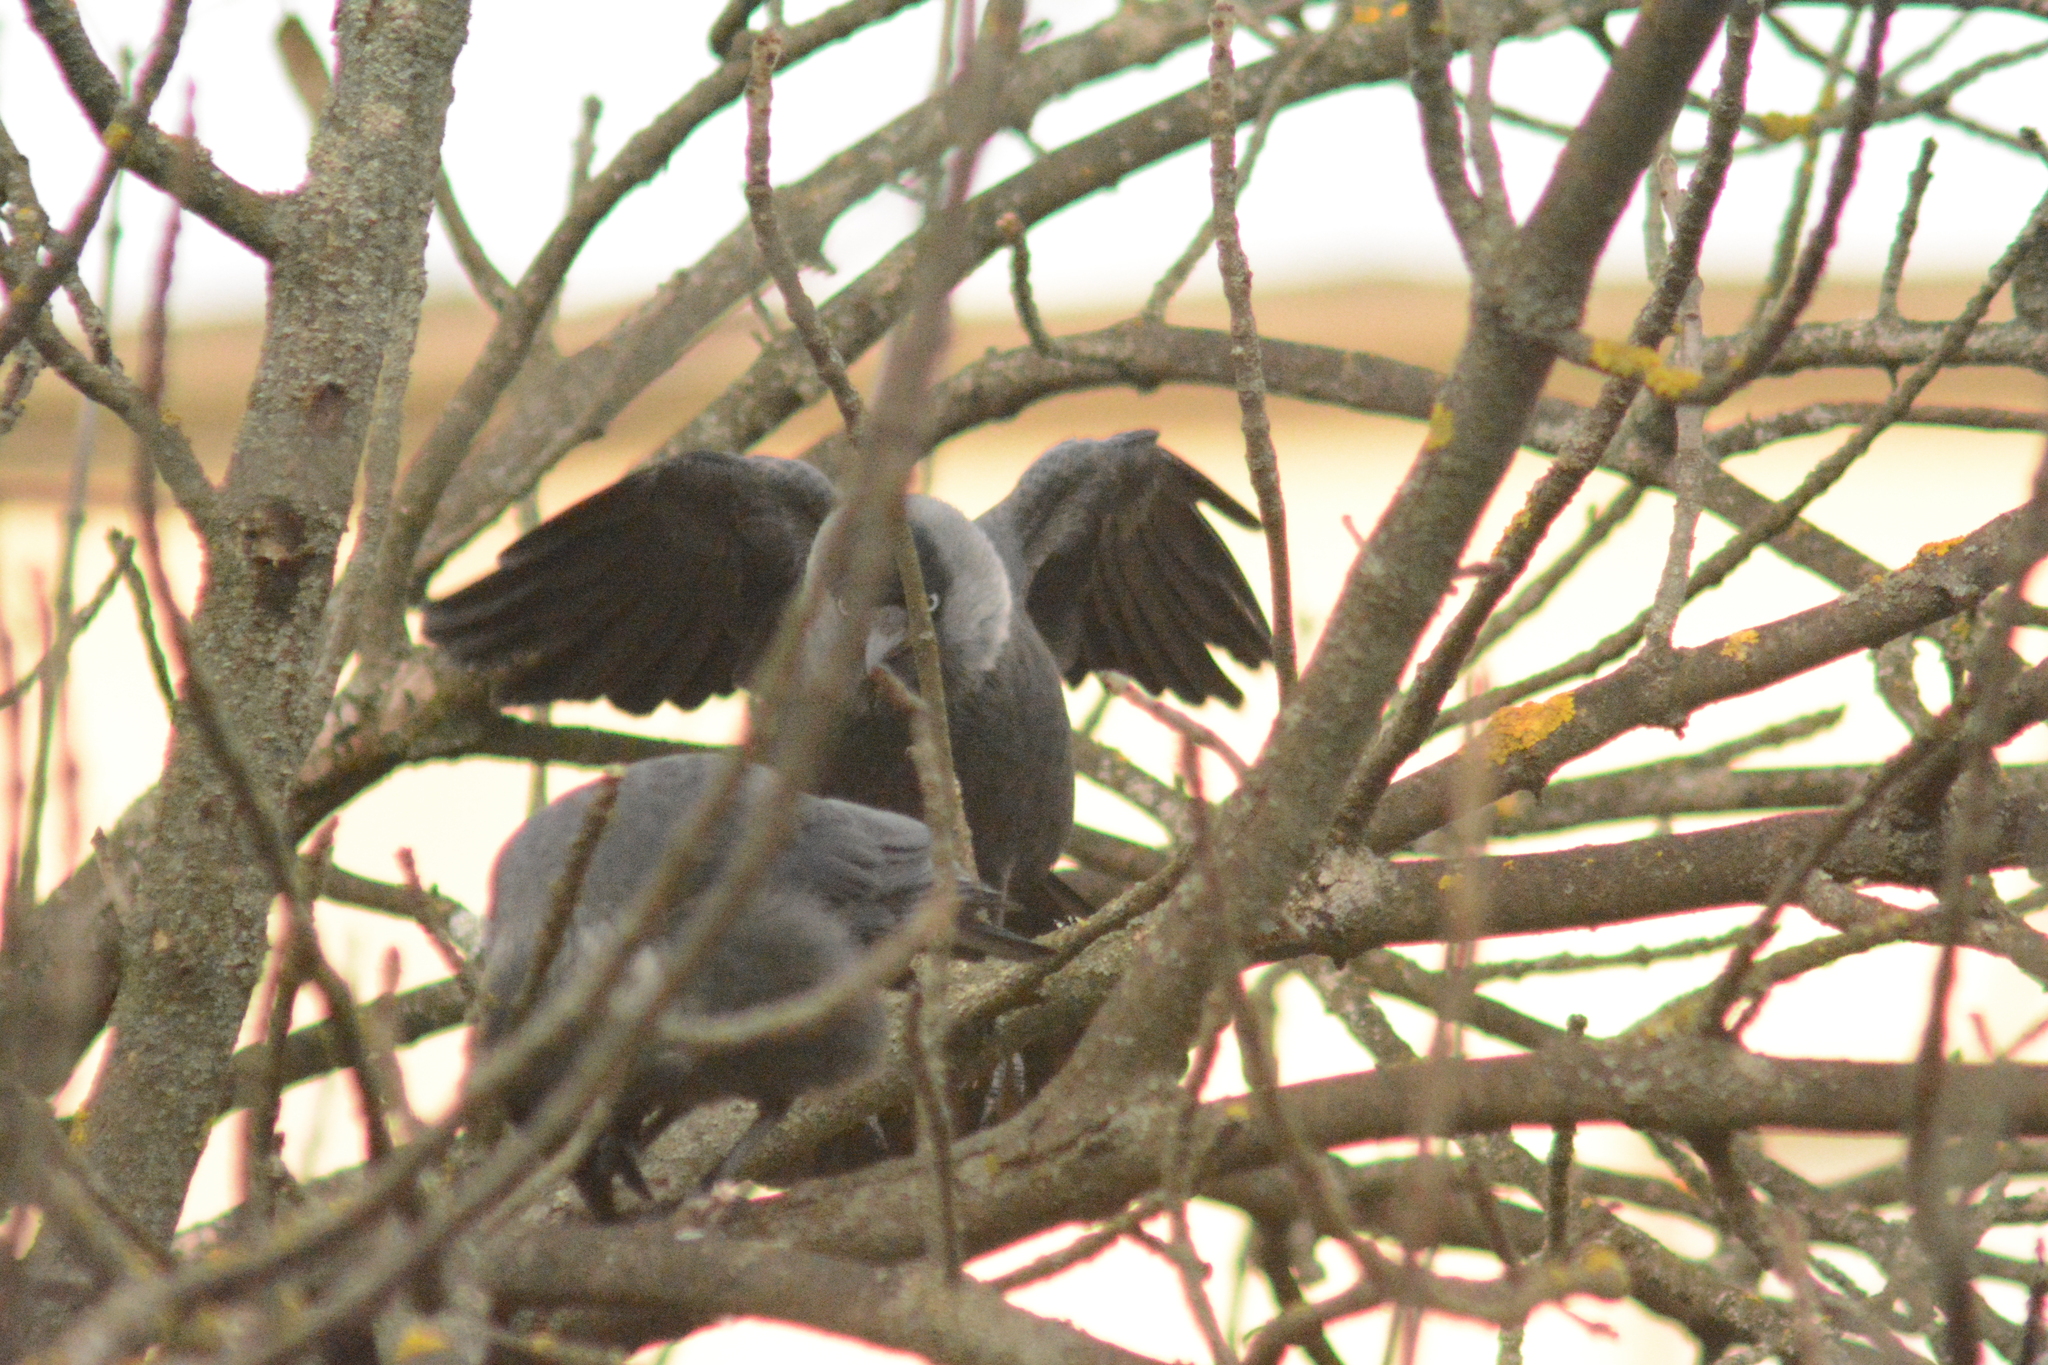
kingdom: Animalia
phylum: Chordata
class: Aves
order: Passeriformes
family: Corvidae
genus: Coloeus
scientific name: Coloeus monedula
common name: Western jackdaw
